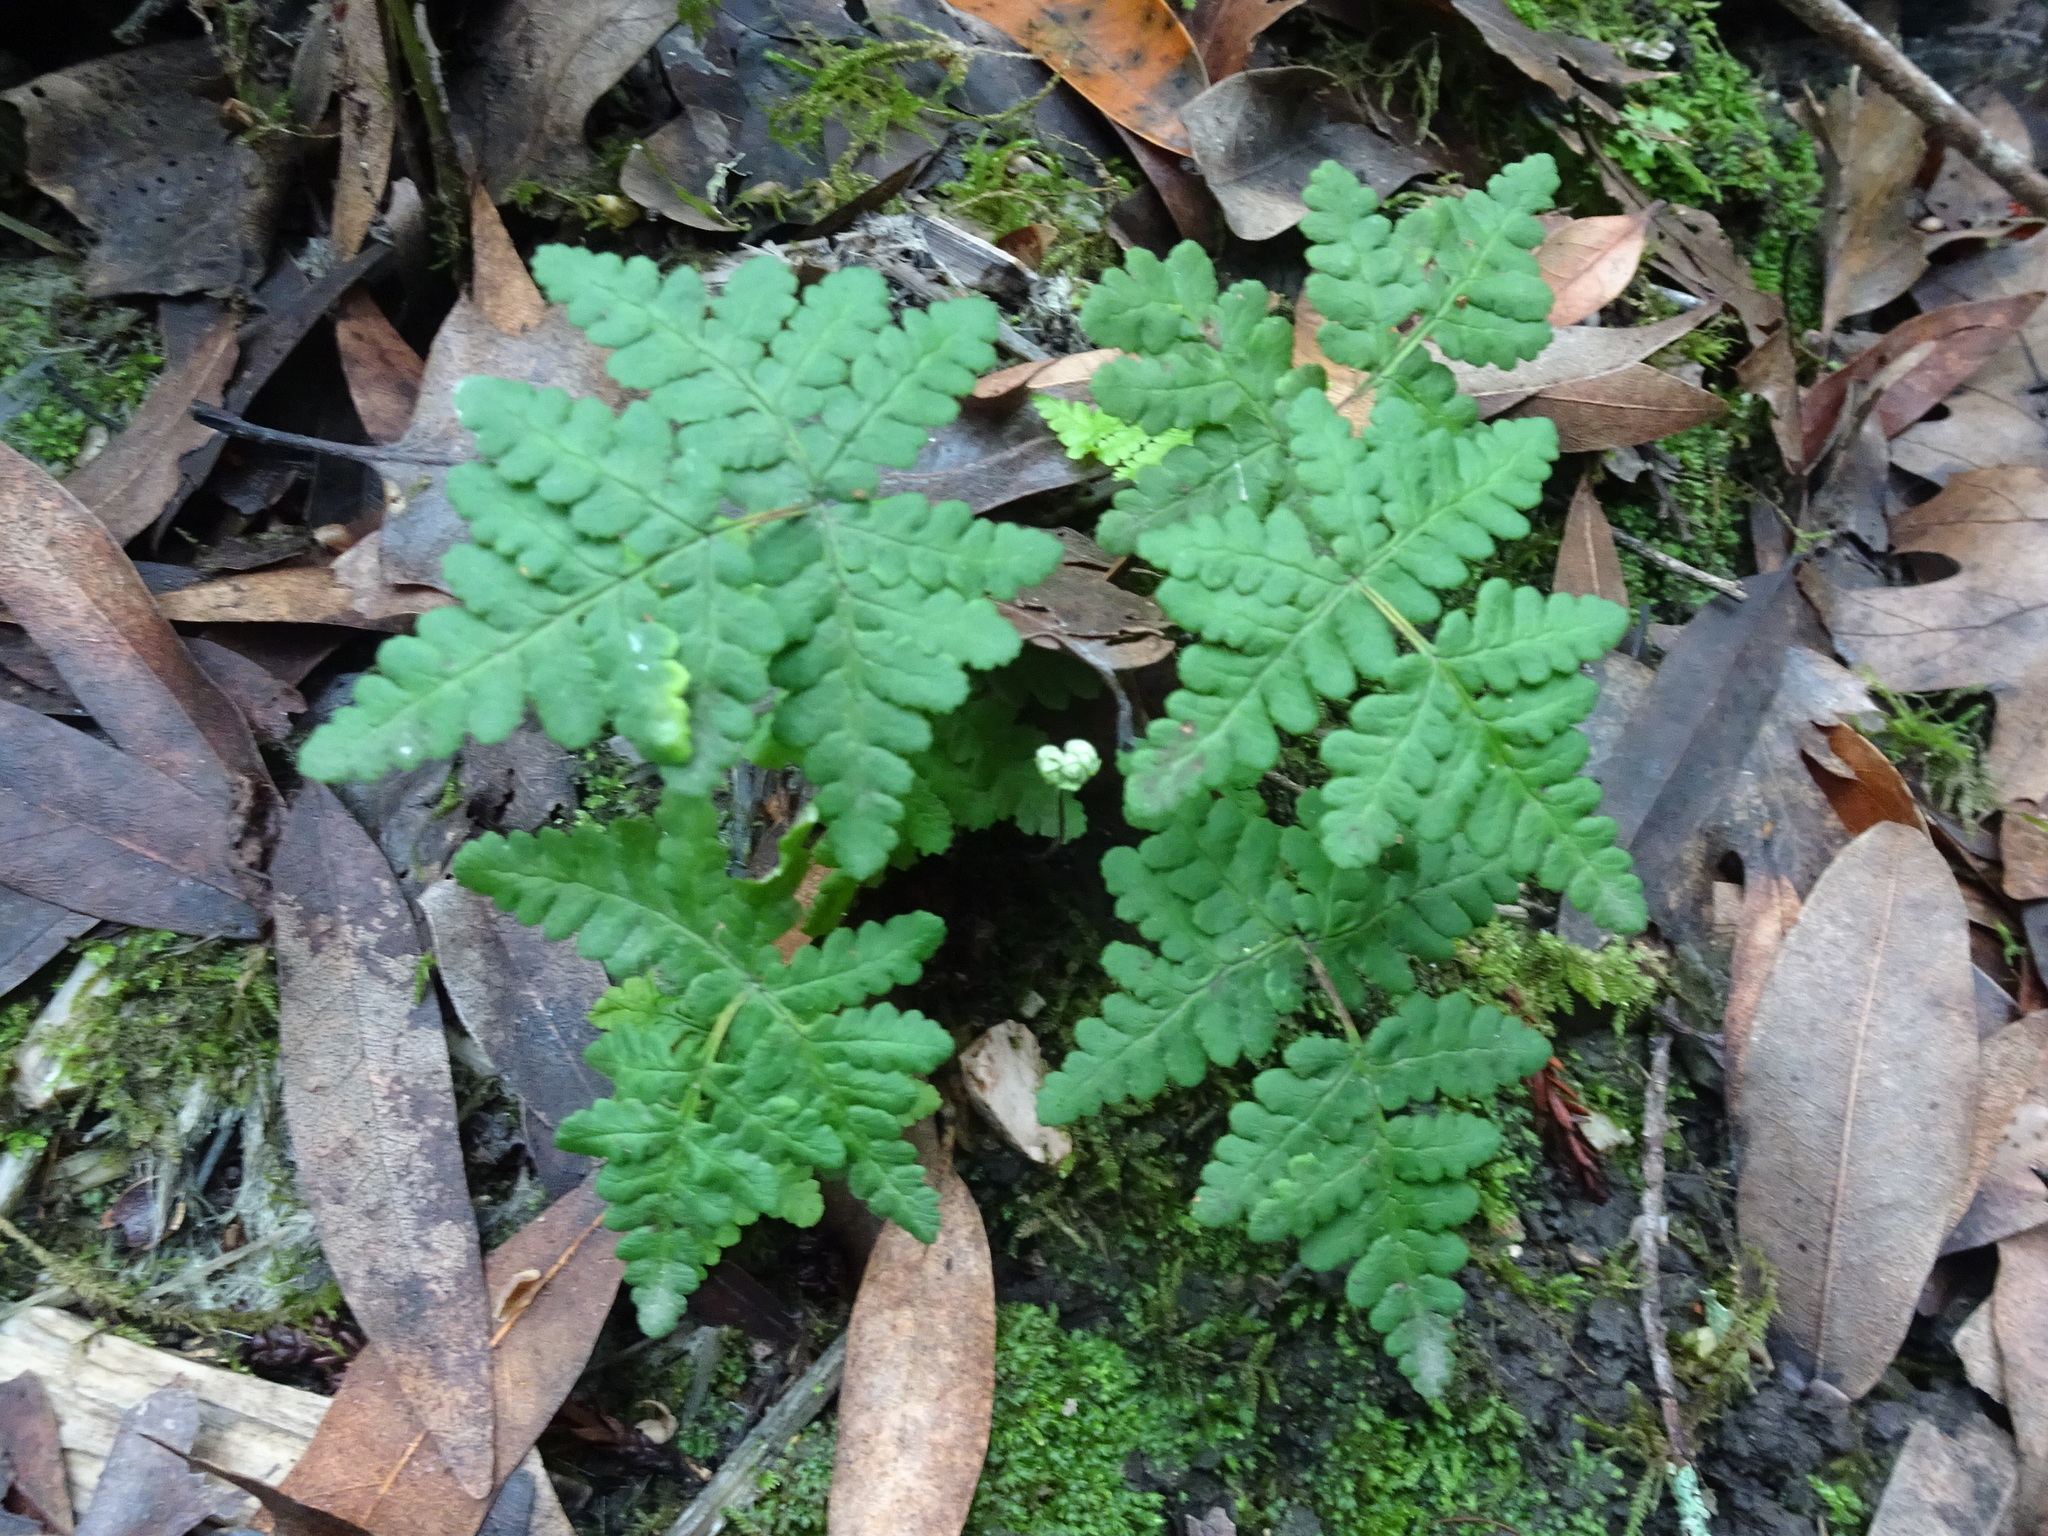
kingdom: Plantae
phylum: Tracheophyta
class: Polypodiopsida
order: Polypodiales
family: Pteridaceae
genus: Pentagramma
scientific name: Pentagramma triangularis
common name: Gold fern
